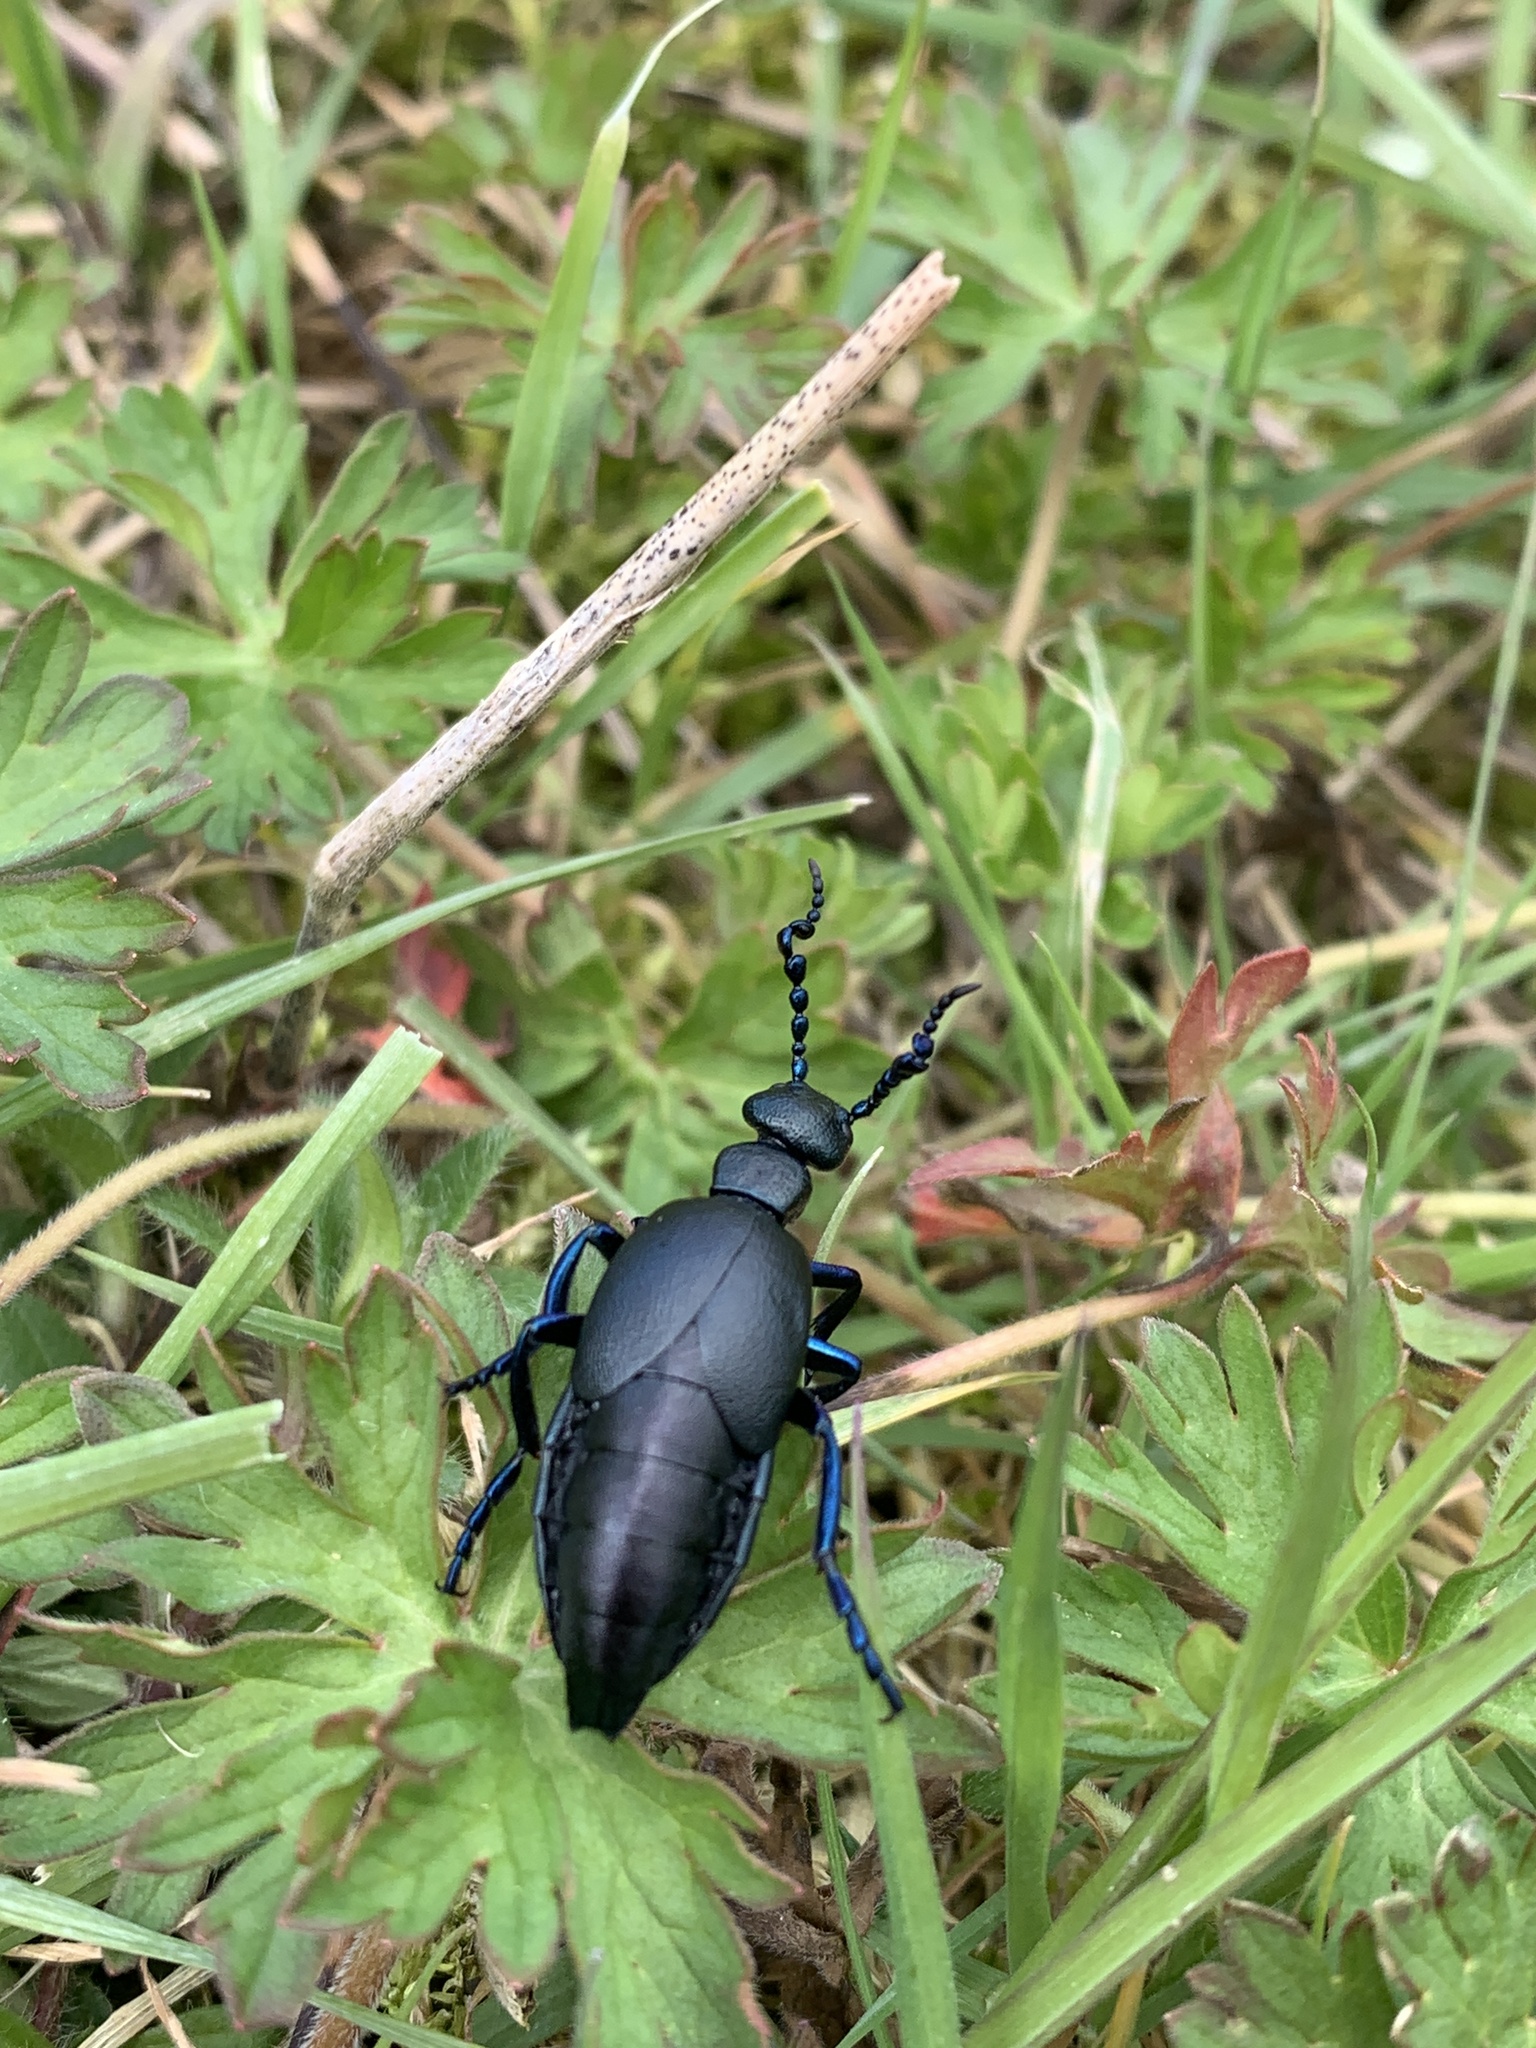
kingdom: Animalia
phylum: Arthropoda
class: Insecta
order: Coleoptera
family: Meloidae
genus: Meloe
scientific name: Meloe proscarabaeus
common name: Black oil-beetle
